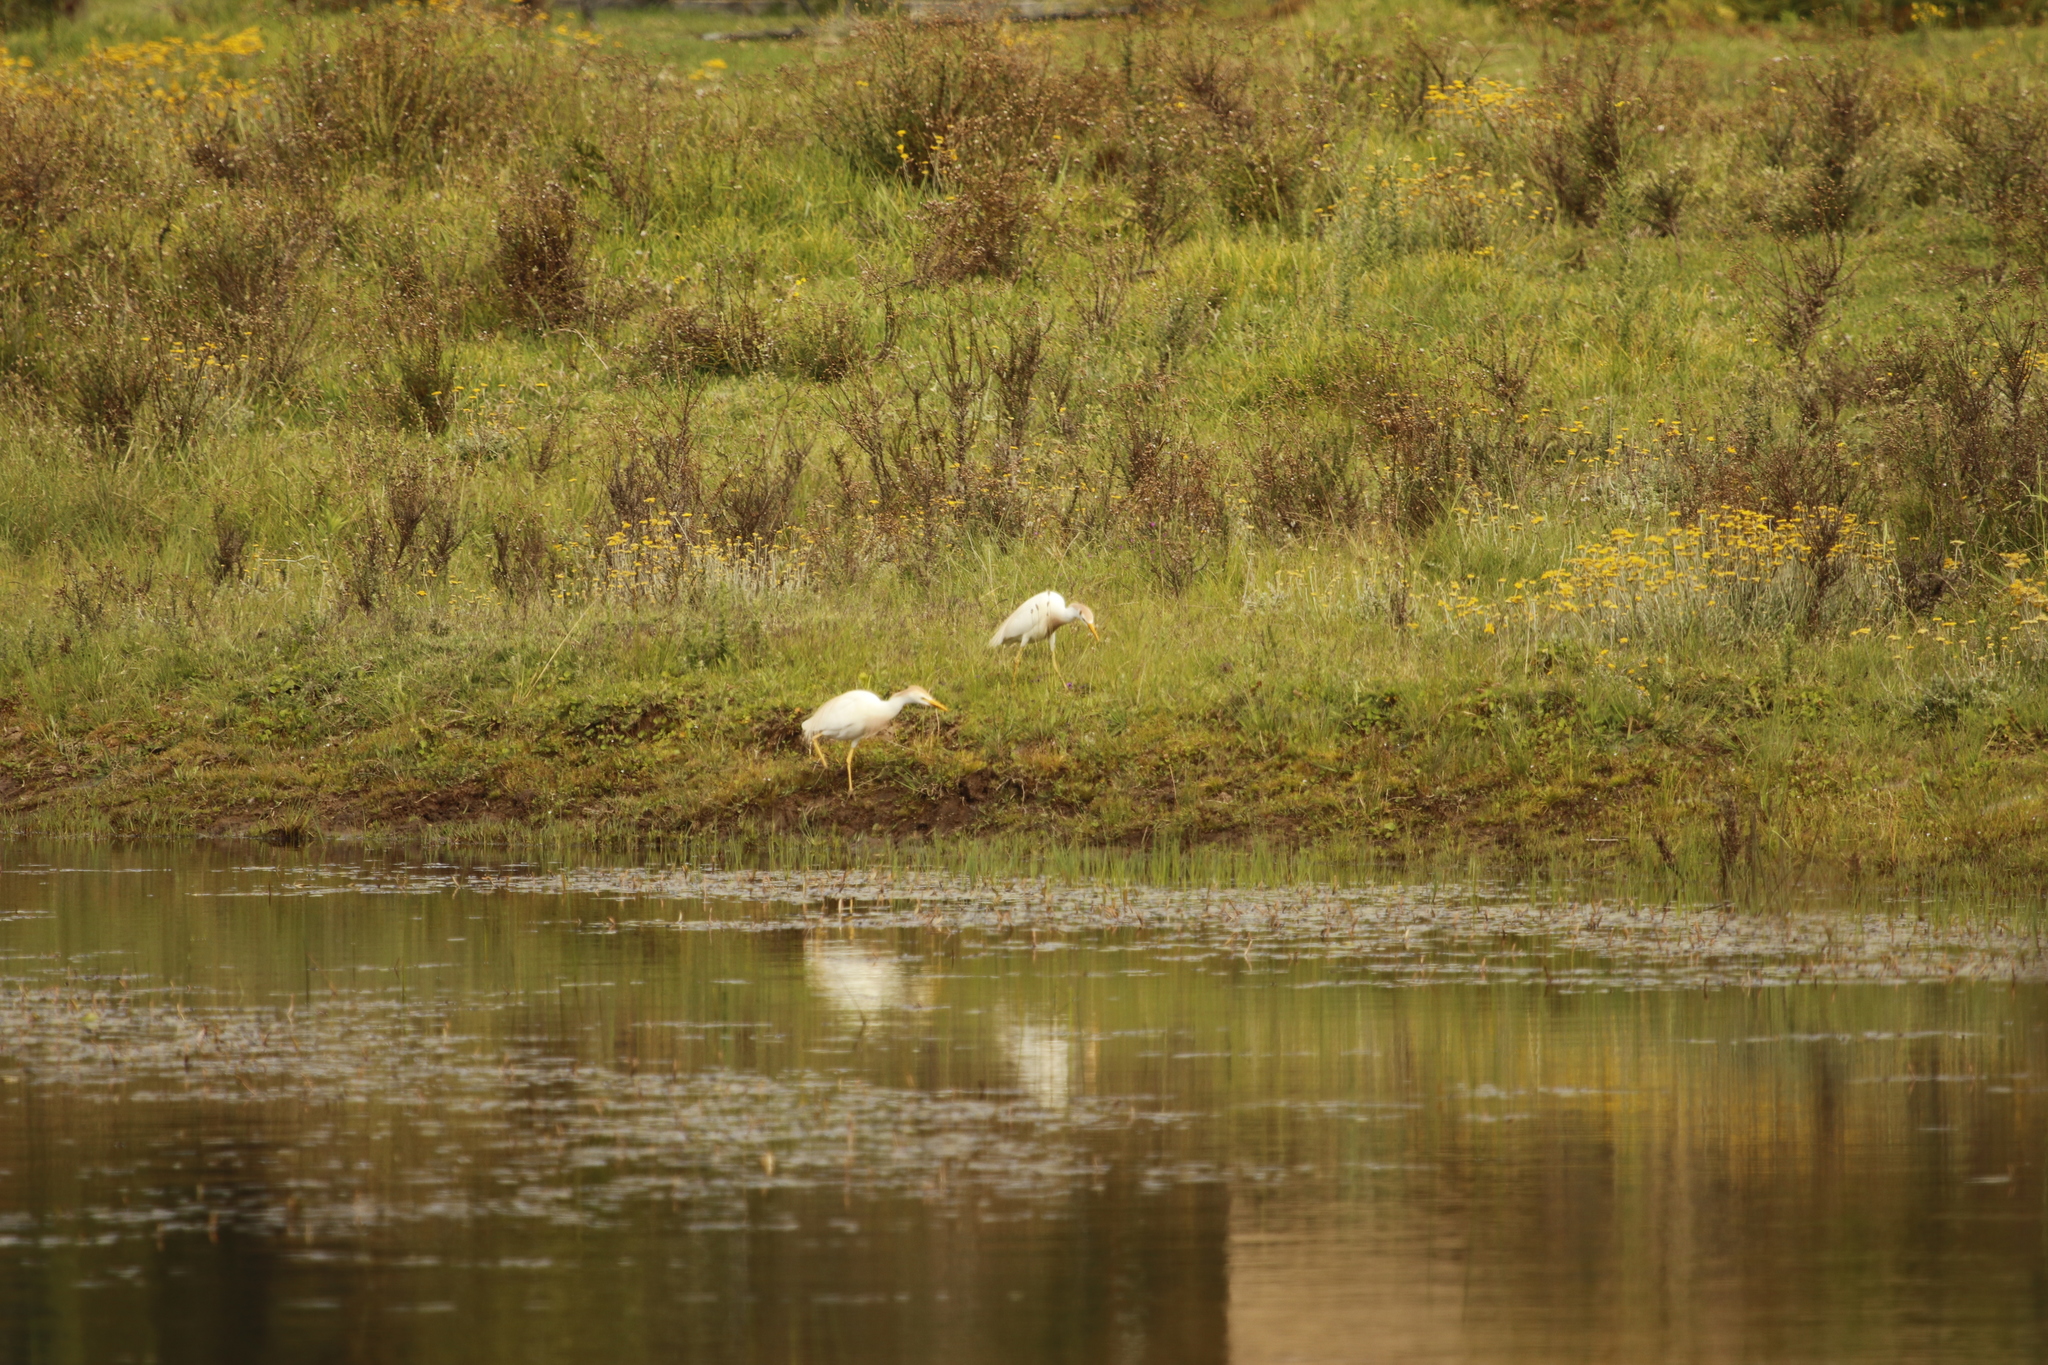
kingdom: Animalia
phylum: Chordata
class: Aves
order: Pelecaniformes
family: Ardeidae
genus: Bubulcus
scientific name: Bubulcus ibis
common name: Cattle egret
